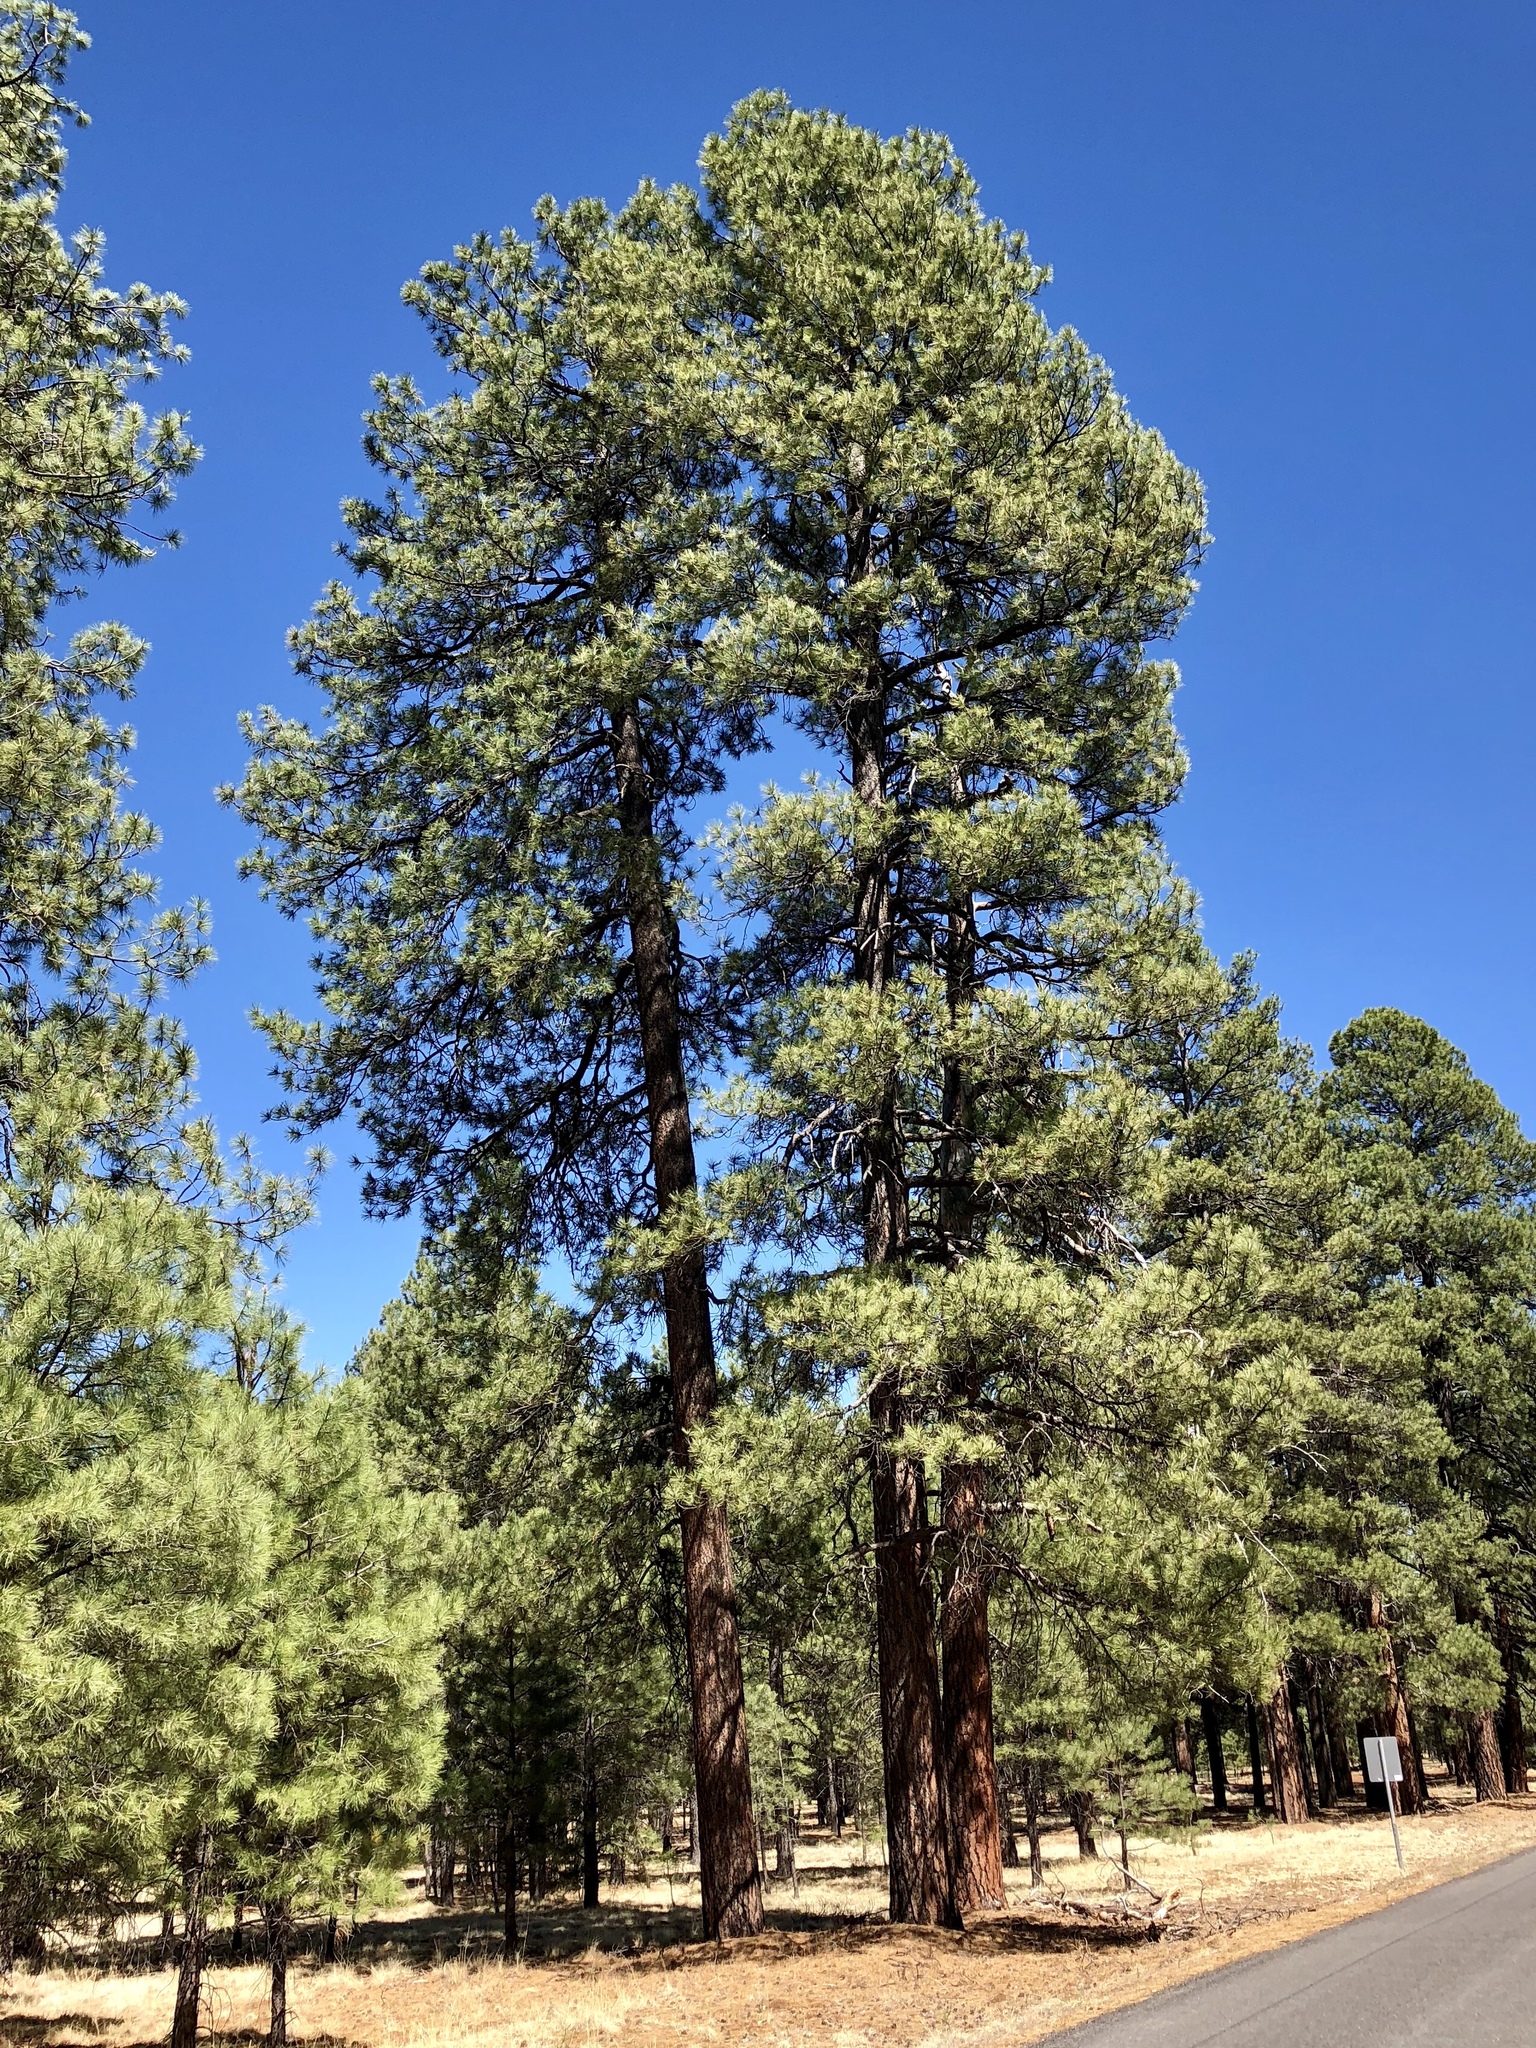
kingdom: Plantae
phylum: Tracheophyta
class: Pinopsida
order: Pinales
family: Pinaceae
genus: Pinus
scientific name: Pinus ponderosa
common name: Western yellow-pine
